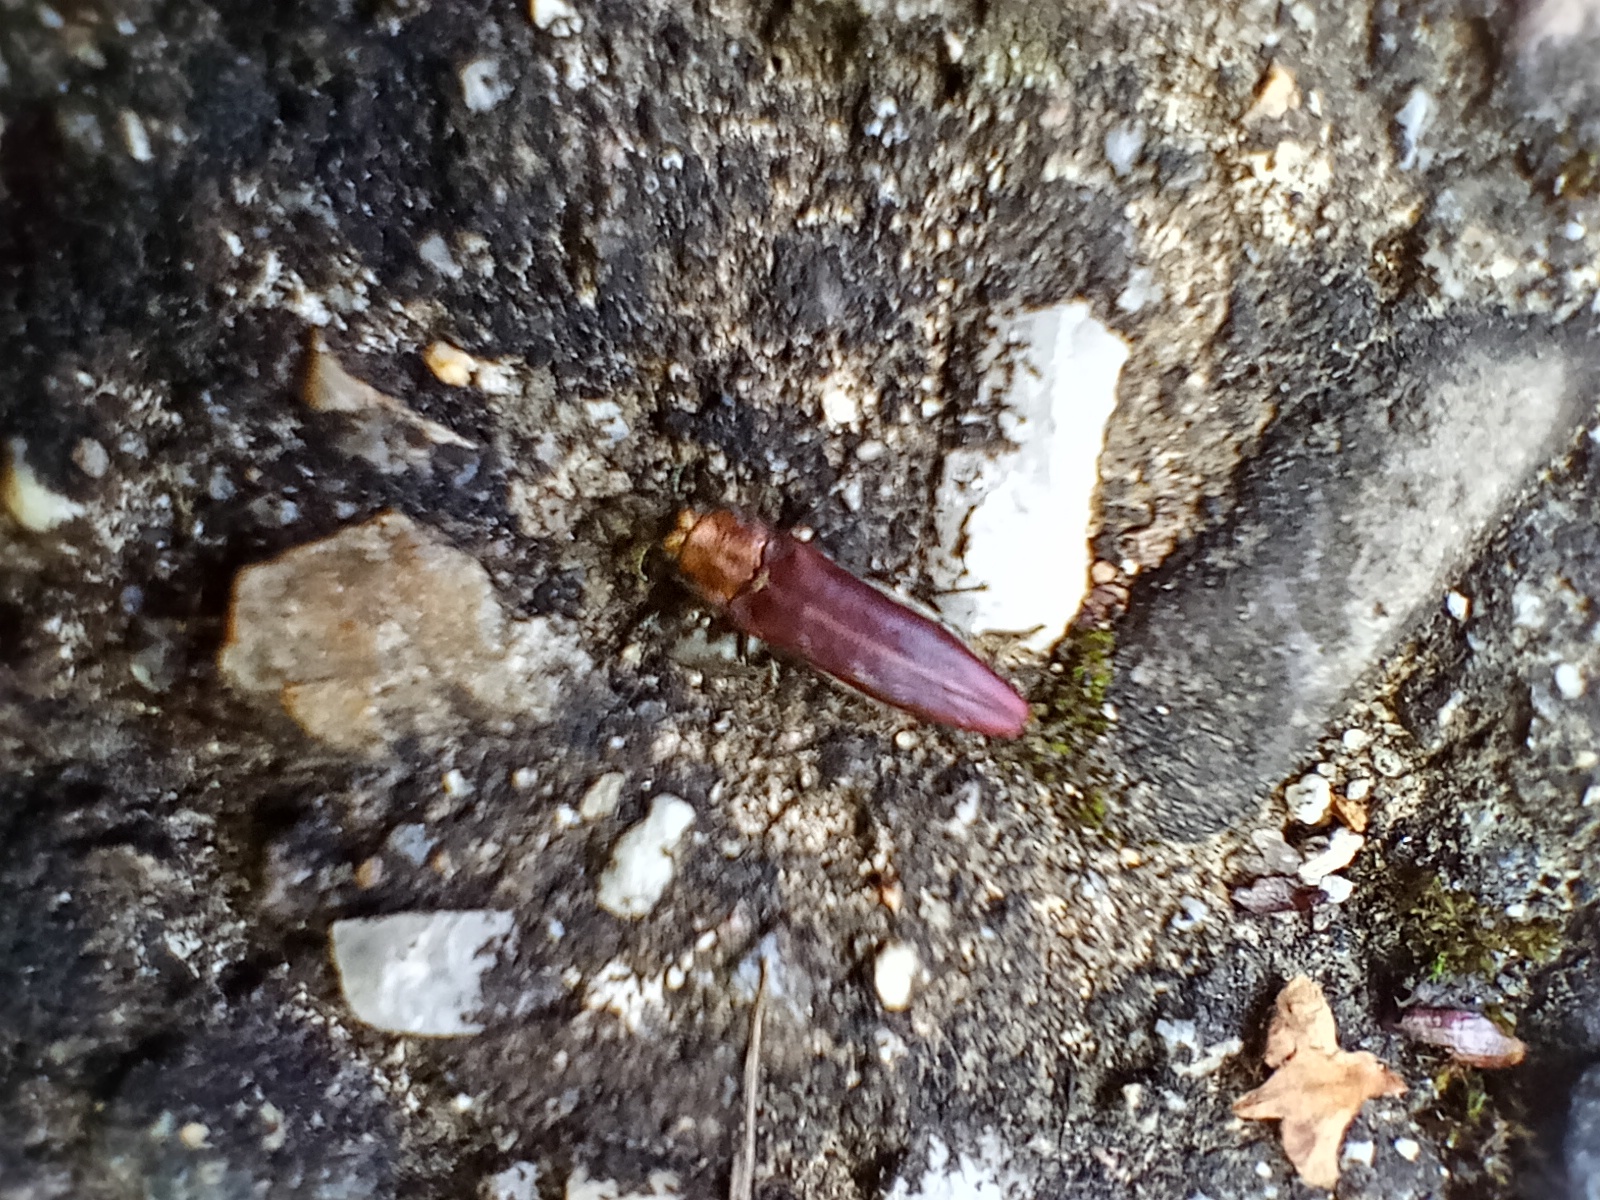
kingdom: Animalia
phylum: Arthropoda
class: Insecta
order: Coleoptera
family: Buprestidae
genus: Agrilus
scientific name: Agrilus sinuatus
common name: Metallic wood-boring beetle
